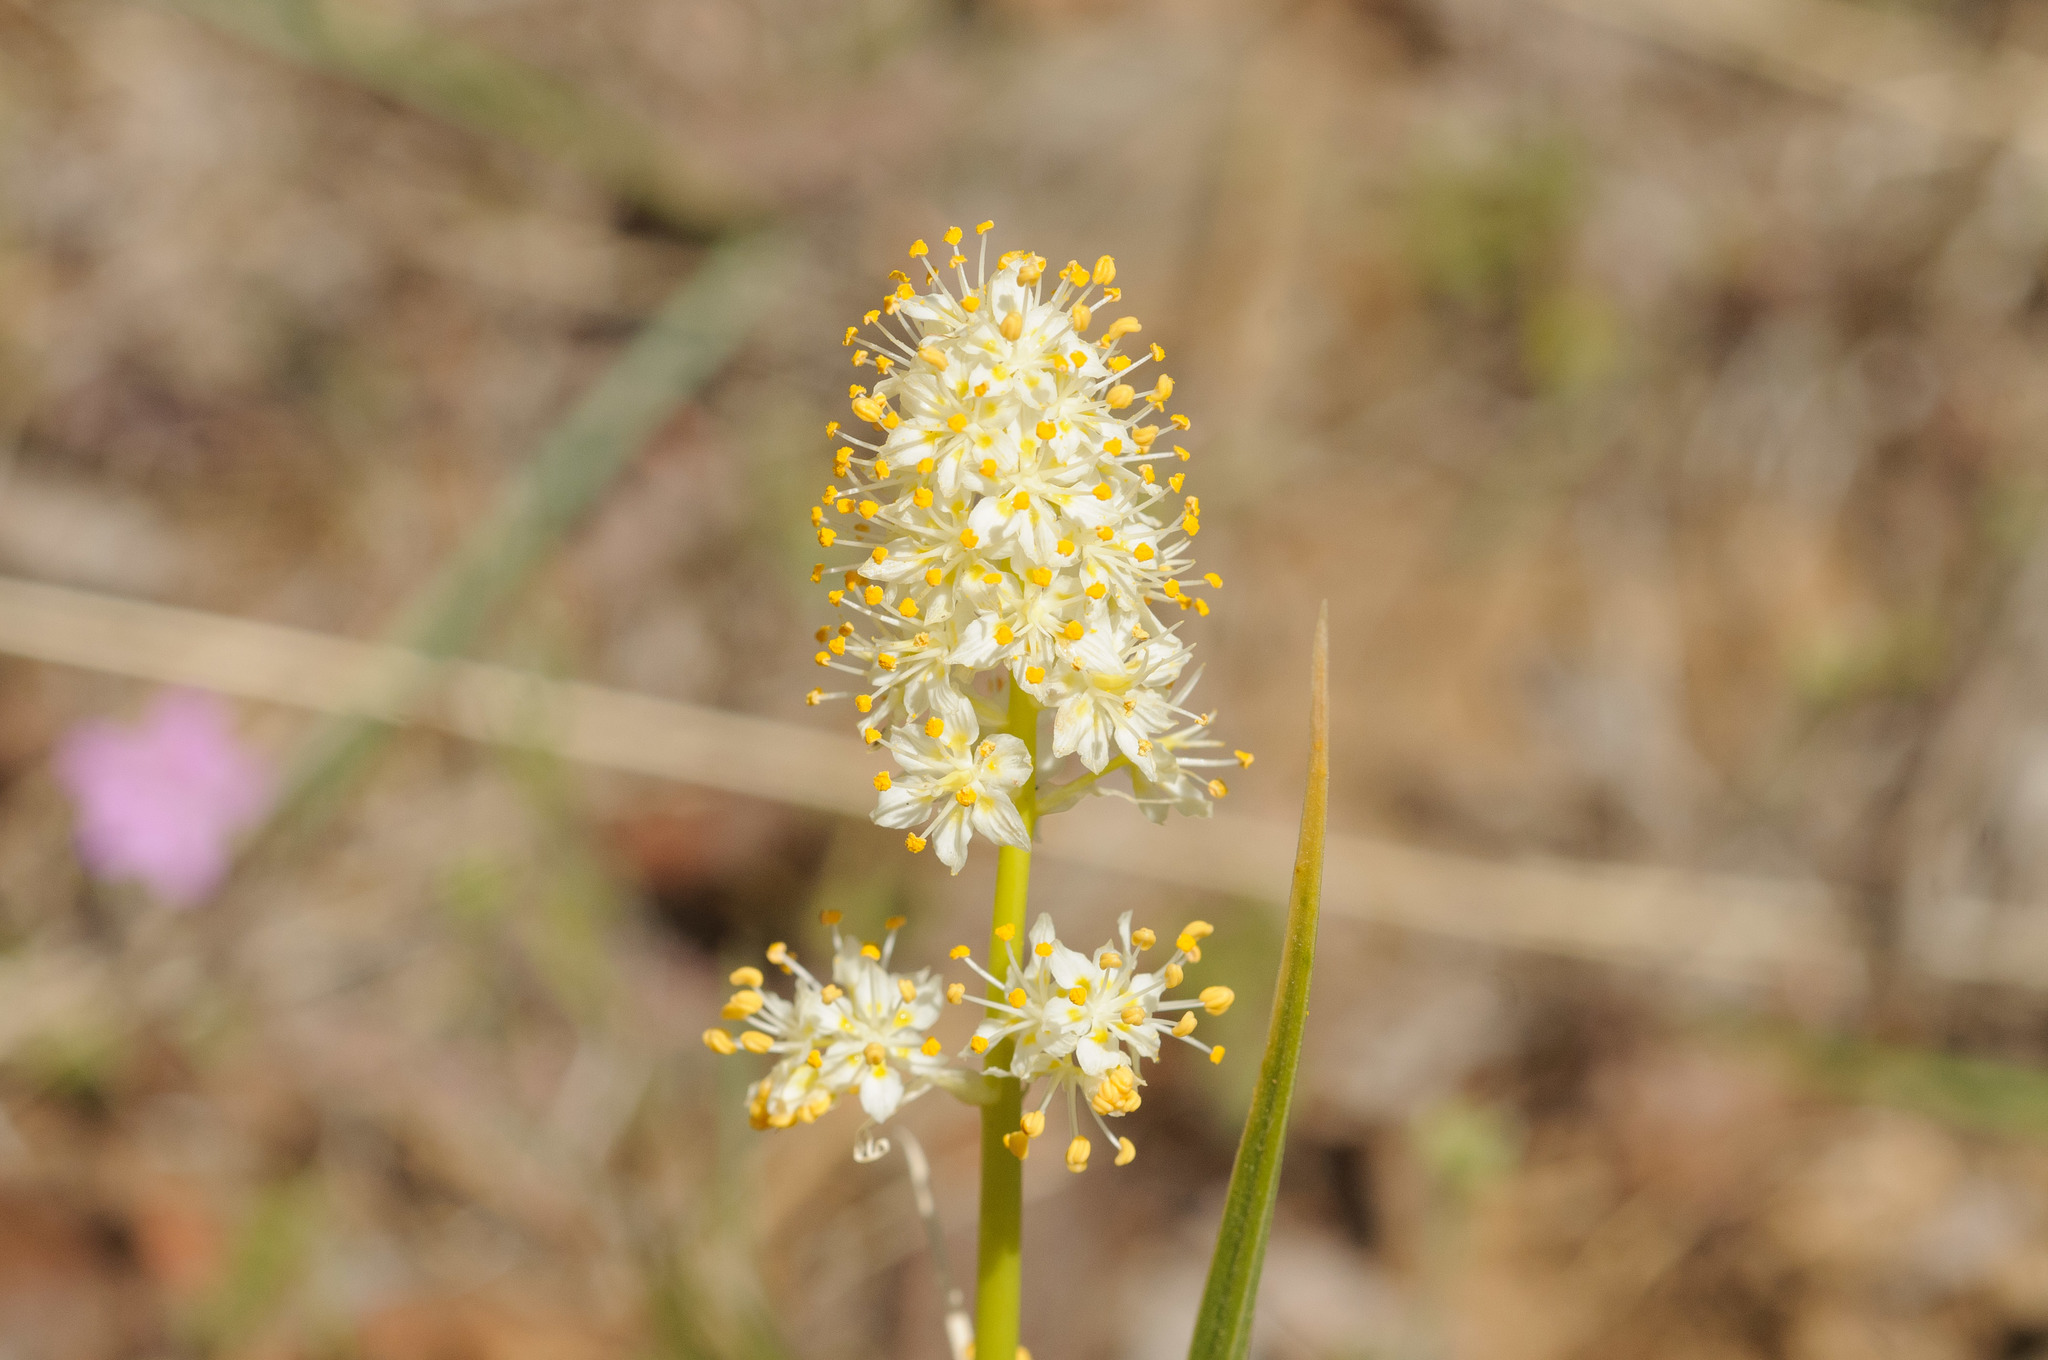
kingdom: Plantae
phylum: Tracheophyta
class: Liliopsida
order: Liliales
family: Melanthiaceae
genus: Toxicoscordion
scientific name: Toxicoscordion paniculatum
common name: Foothill death camas
